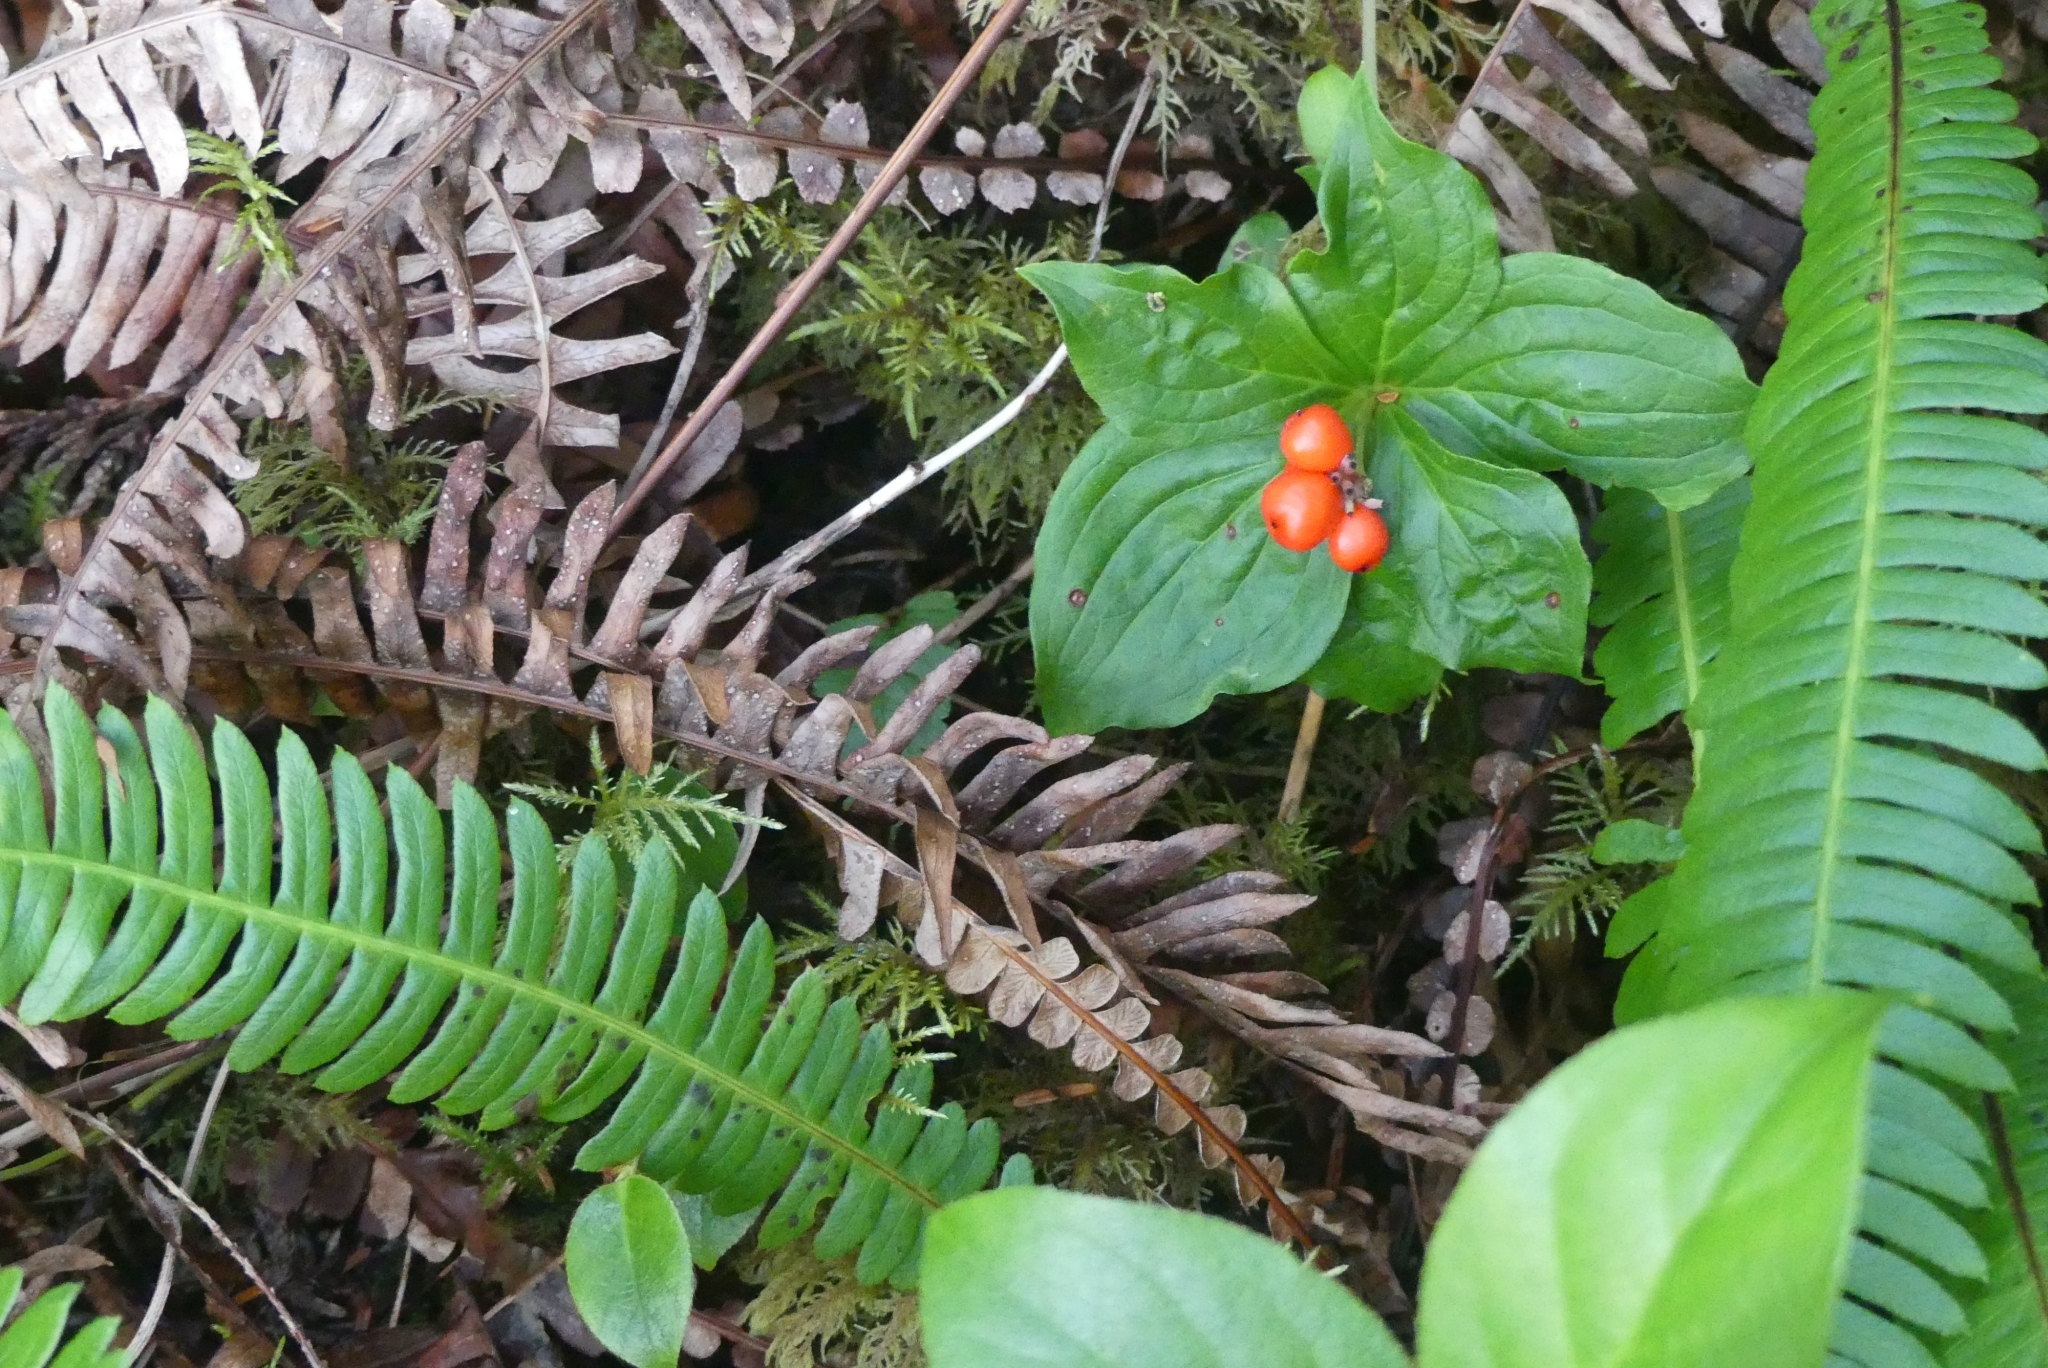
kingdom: Plantae
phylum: Tracheophyta
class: Magnoliopsida
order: Cornales
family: Cornaceae
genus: Cornus
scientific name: Cornus unalaschkensis
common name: Alaska bunchberry
